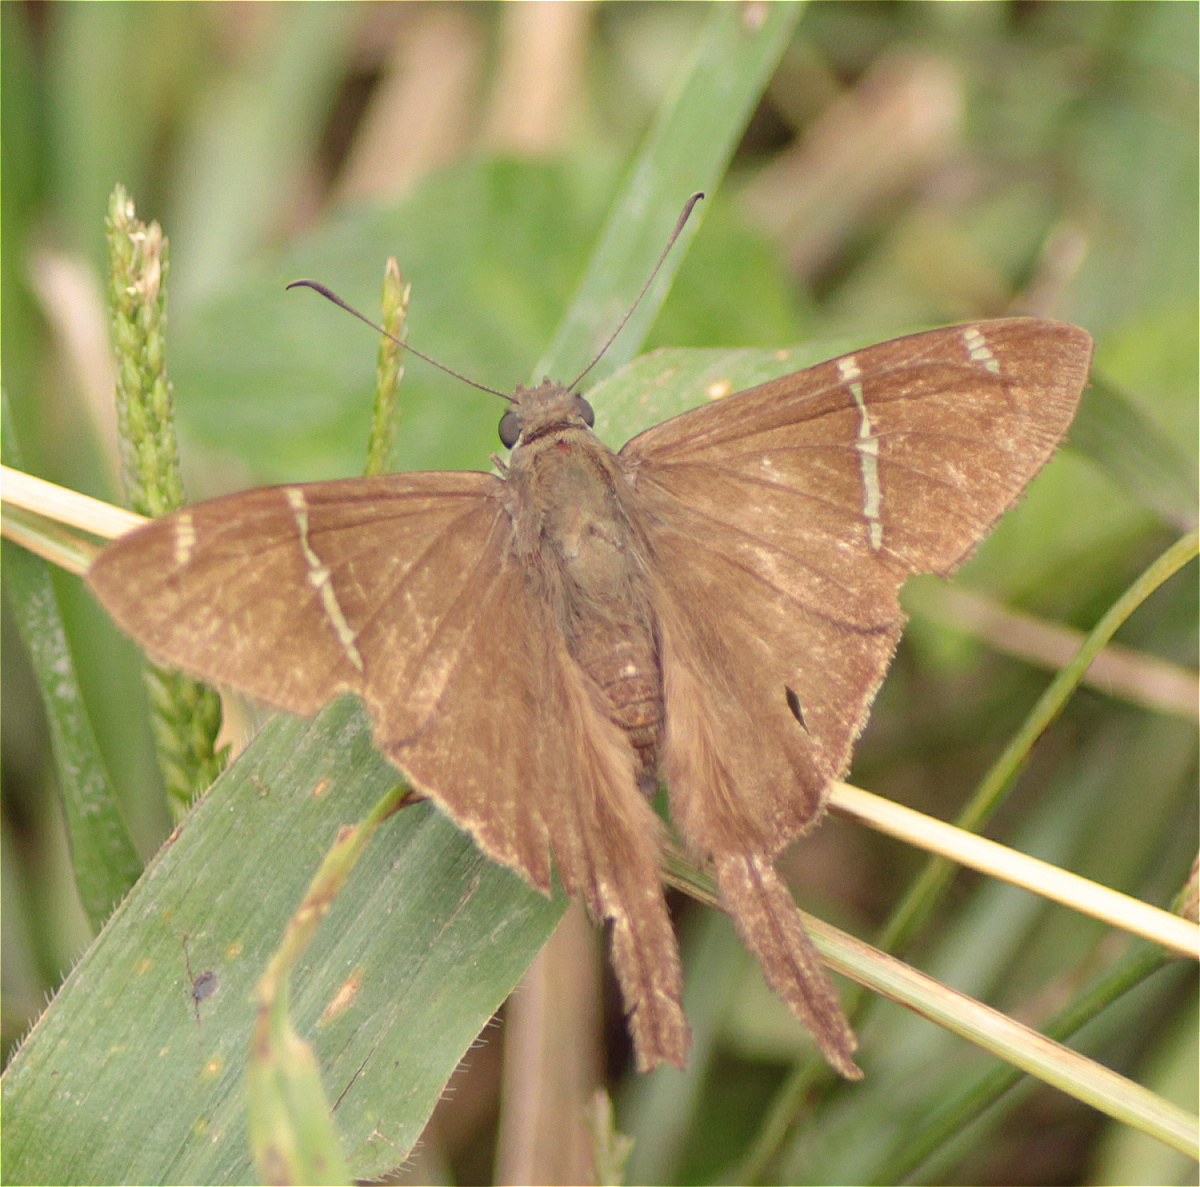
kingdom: Animalia
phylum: Arthropoda
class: Insecta
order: Lepidoptera
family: Hesperiidae
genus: Urbanus
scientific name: Urbanus teleus
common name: Teleus longtail
